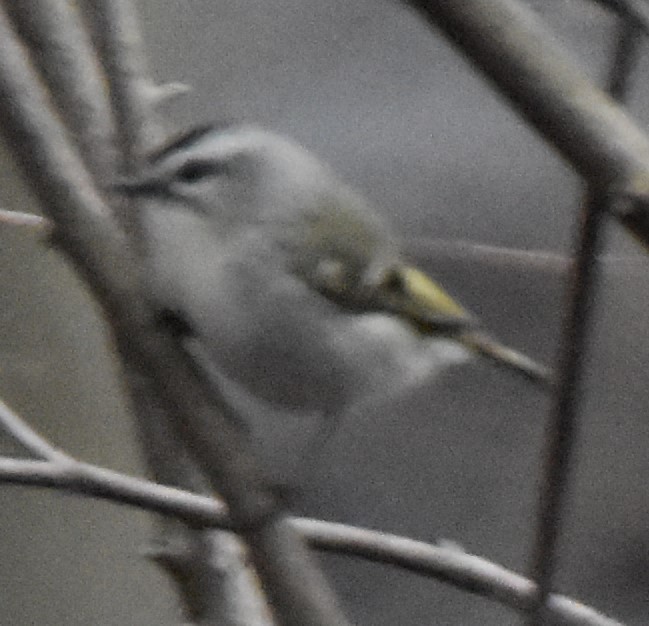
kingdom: Animalia
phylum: Chordata
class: Aves
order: Passeriformes
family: Regulidae
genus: Regulus
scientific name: Regulus satrapa
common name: Golden-crowned kinglet
